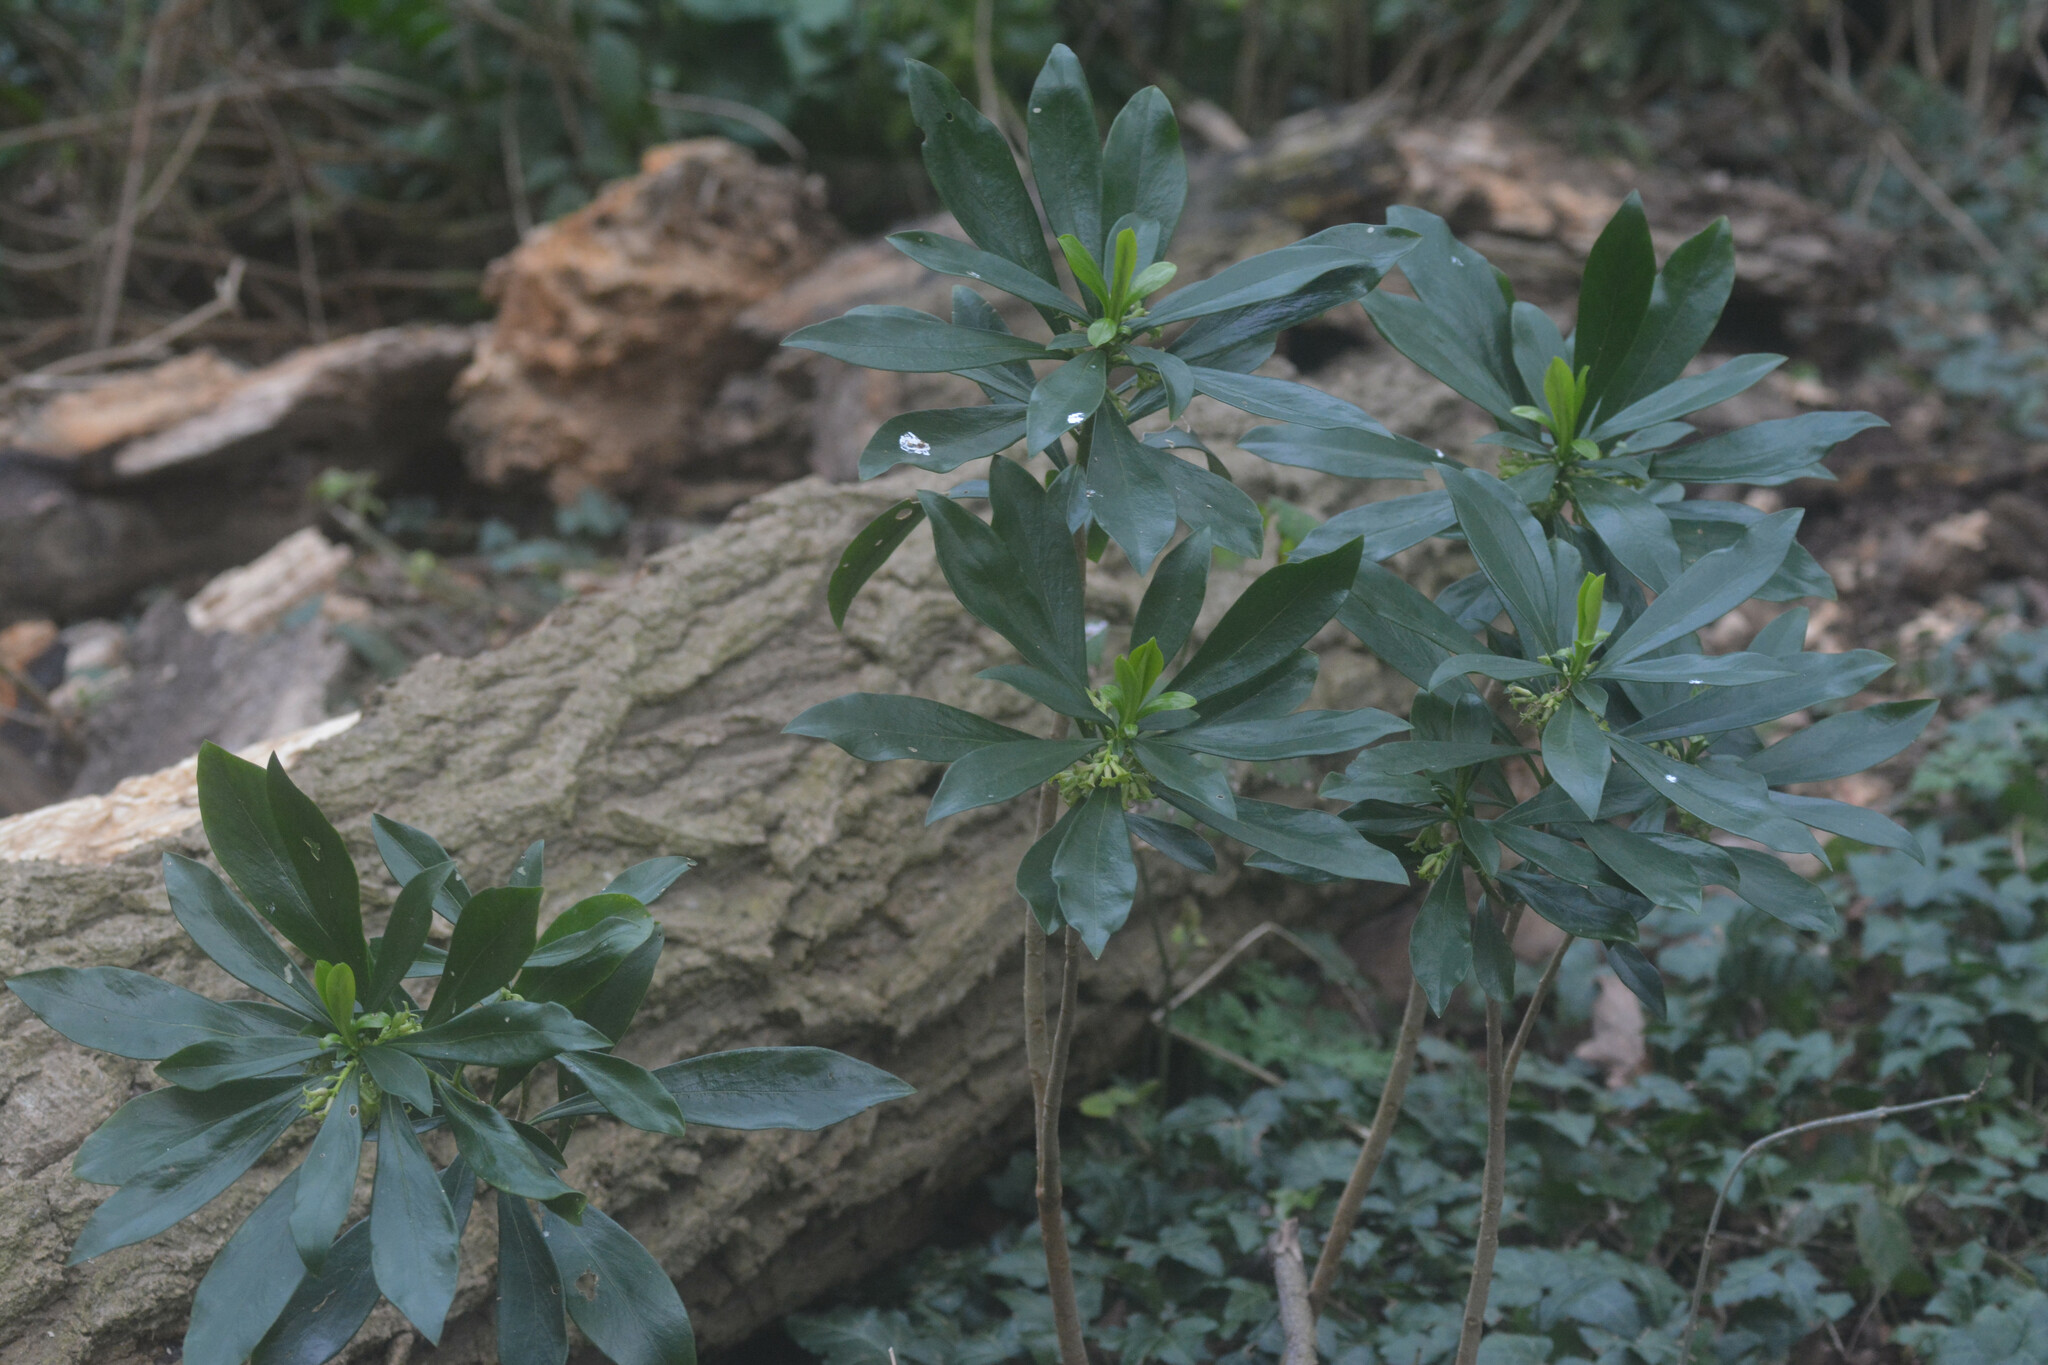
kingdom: Plantae
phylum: Tracheophyta
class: Magnoliopsida
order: Malvales
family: Thymelaeaceae
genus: Daphne
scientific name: Daphne laureola
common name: Spurge-laurel
